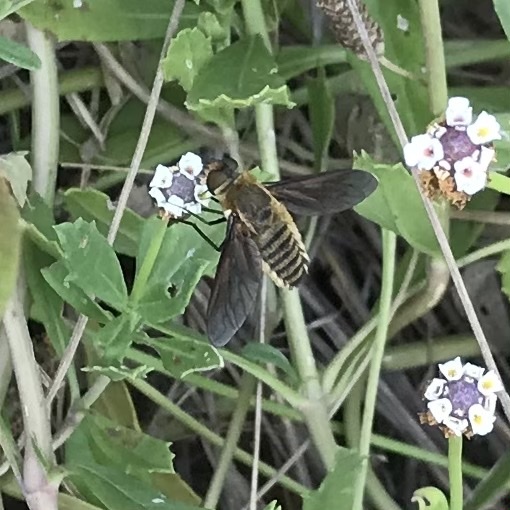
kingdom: Animalia
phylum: Arthropoda
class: Insecta
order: Diptera
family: Bombyliidae
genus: Poecilanthrax
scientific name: Poecilanthrax lucifer
